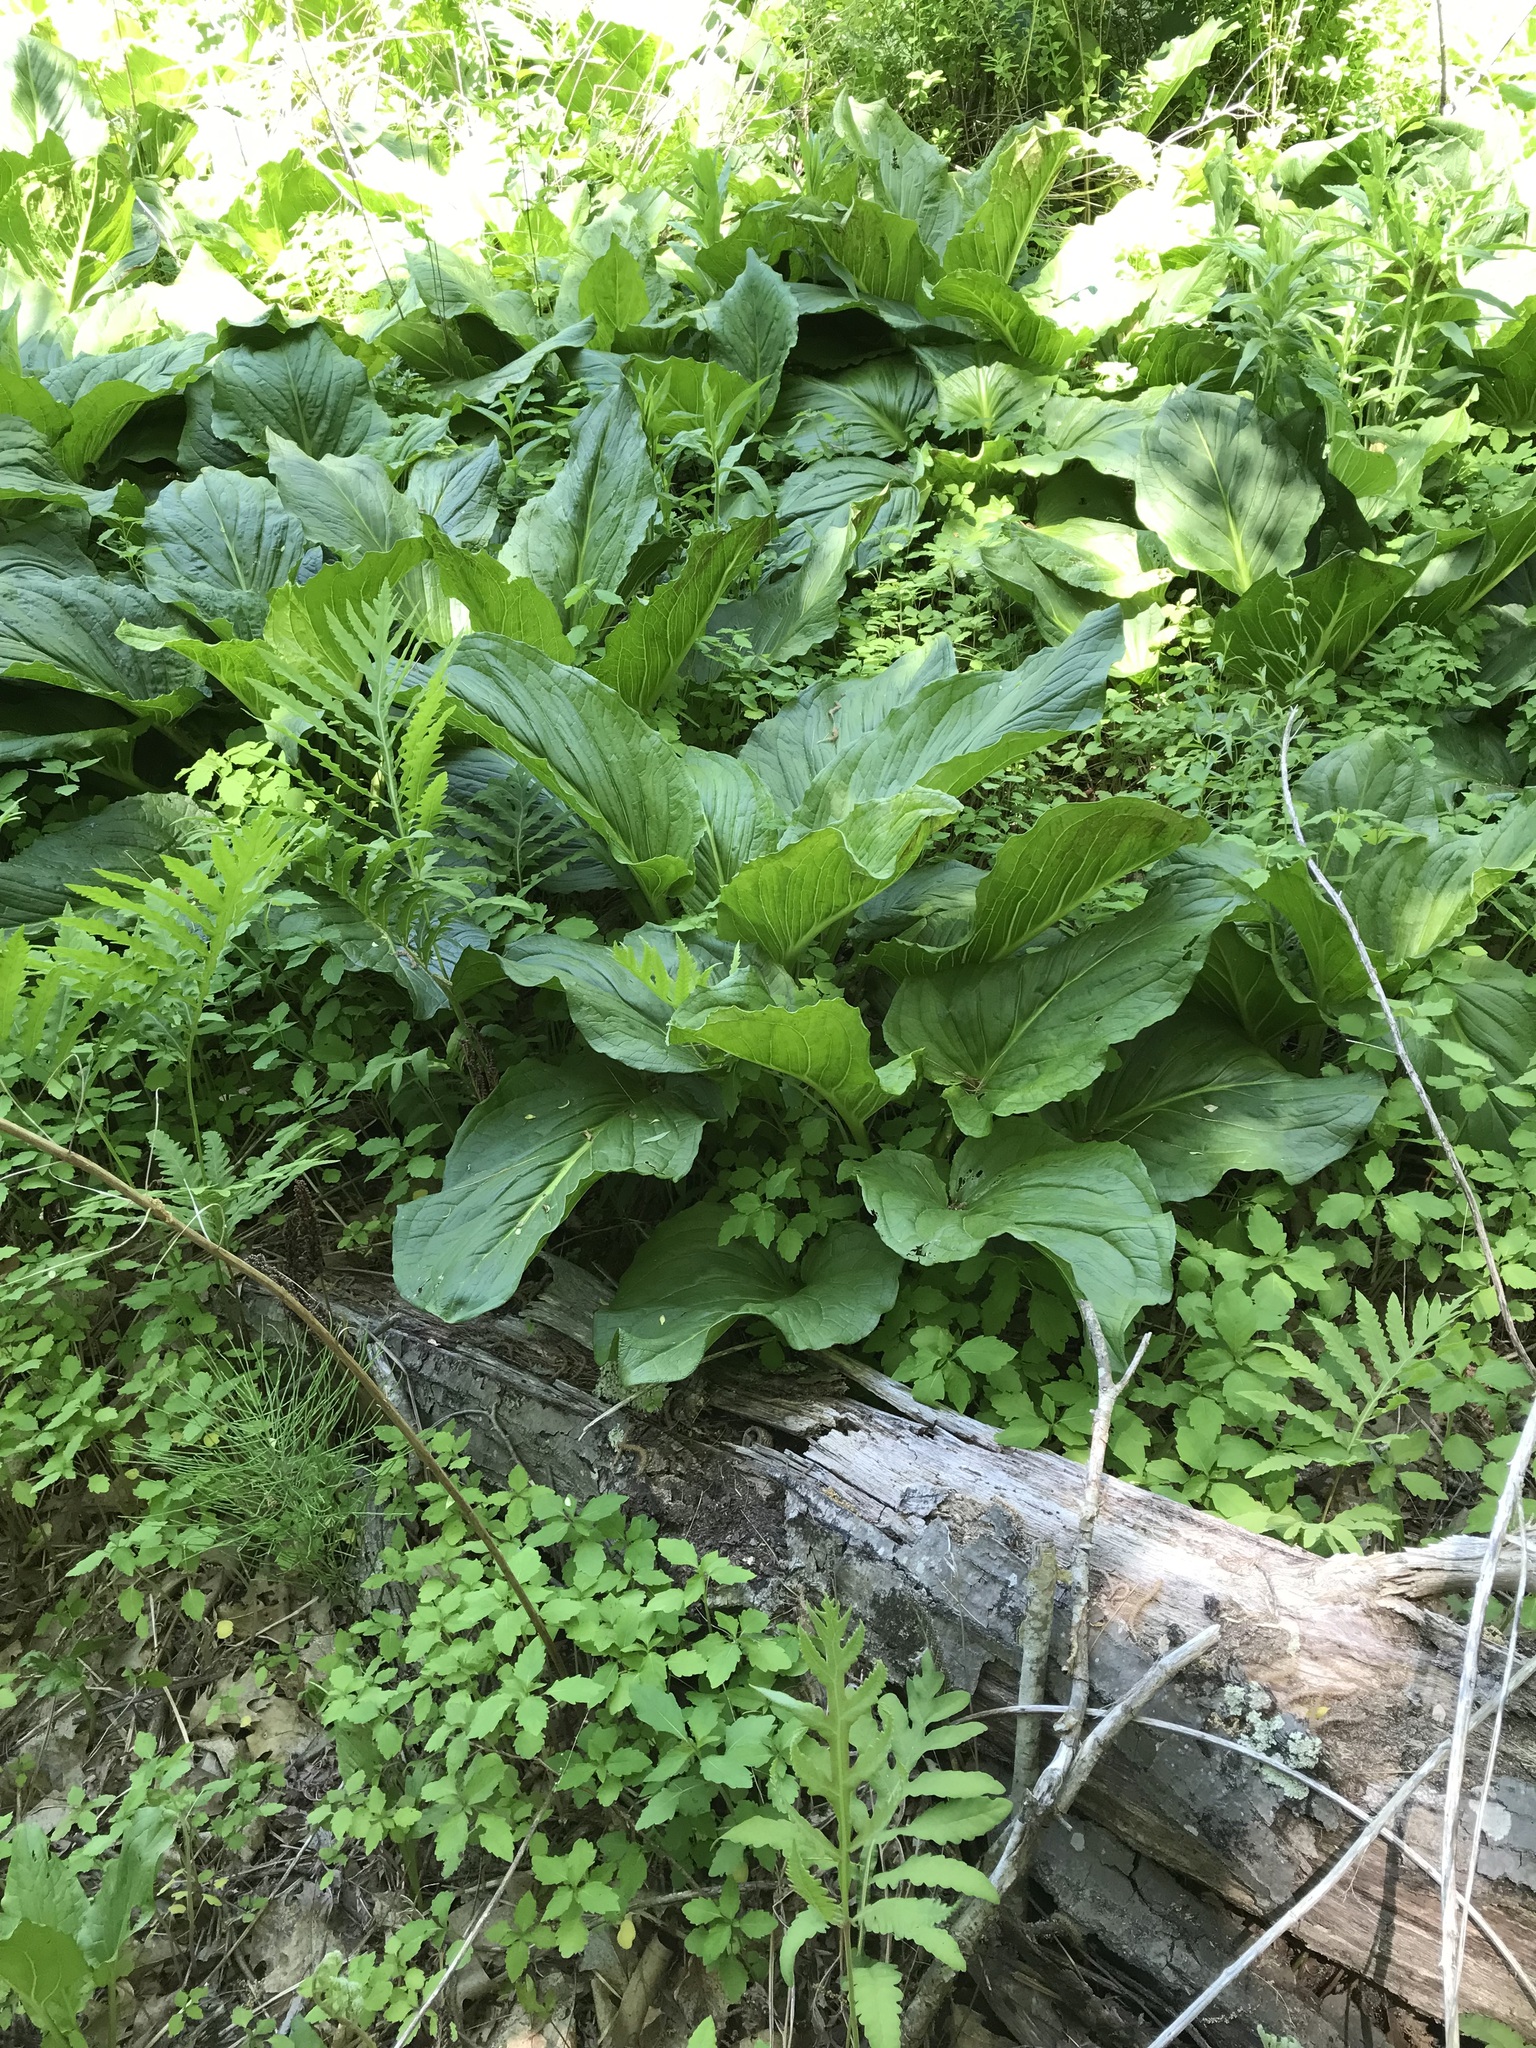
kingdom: Plantae
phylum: Tracheophyta
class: Liliopsida
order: Alismatales
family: Araceae
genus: Symplocarpus
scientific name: Symplocarpus foetidus
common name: Eastern skunk cabbage
